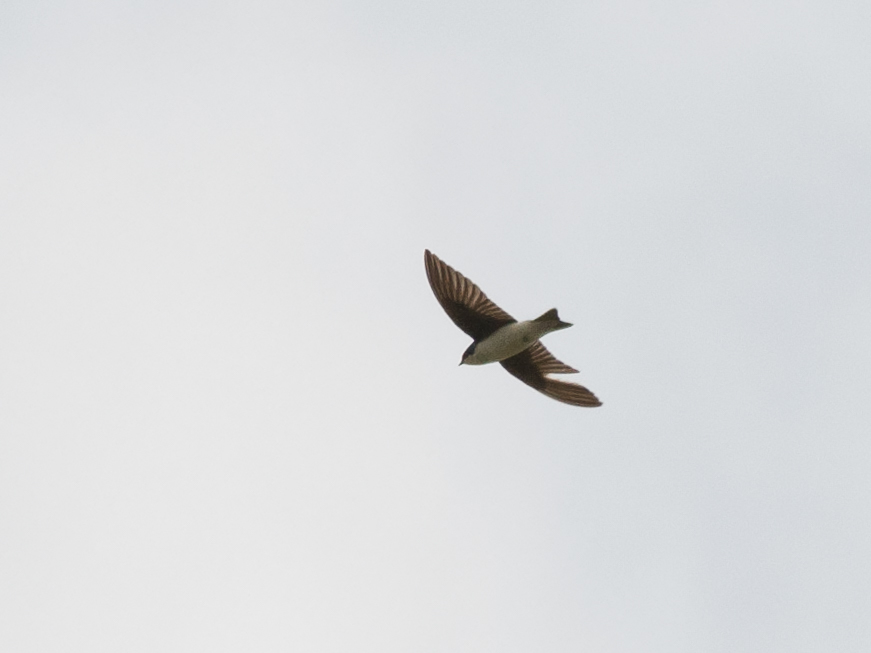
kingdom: Animalia
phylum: Chordata
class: Aves
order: Passeriformes
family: Hirundinidae
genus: Tachycineta
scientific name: Tachycineta bicolor
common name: Tree swallow
